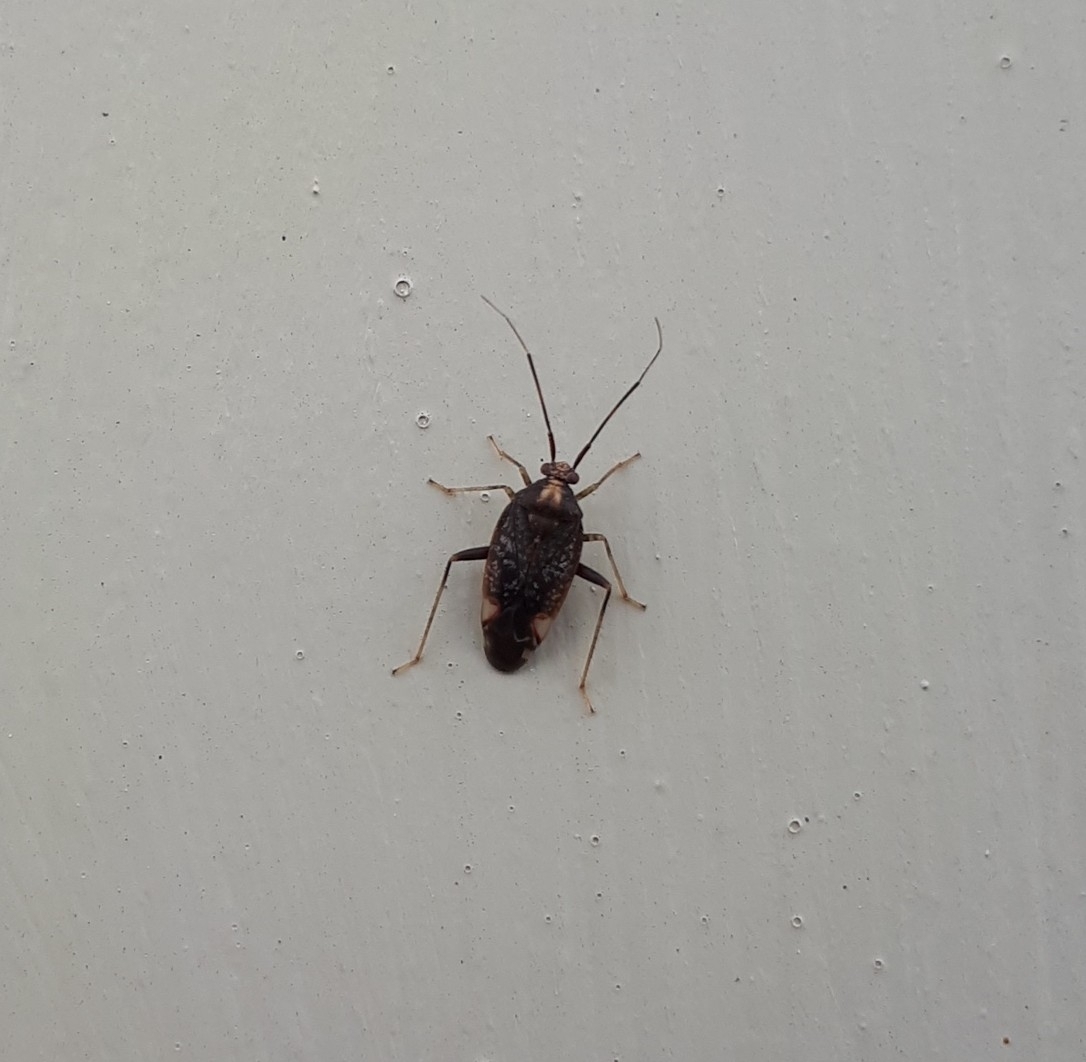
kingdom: Animalia
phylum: Arthropoda
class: Insecta
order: Hemiptera
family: Miridae
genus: Chinamiris
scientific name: Chinamiris indeclivis
